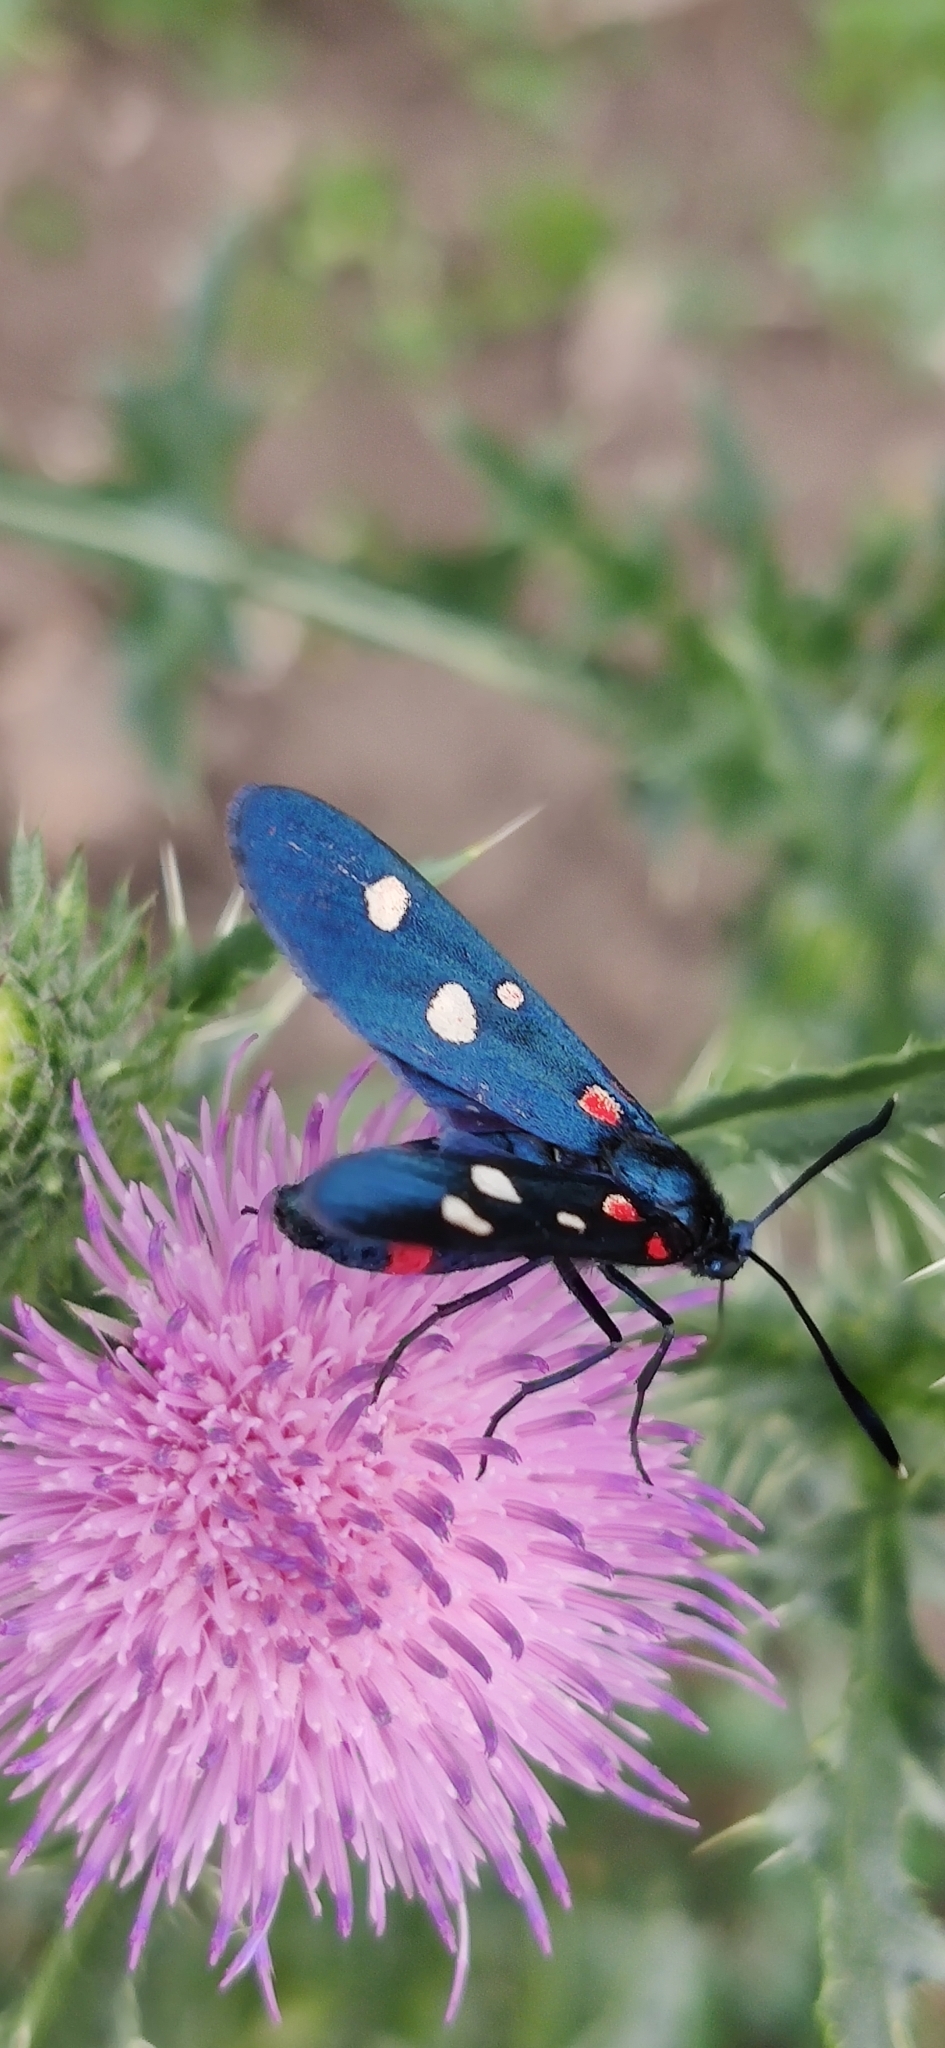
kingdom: Animalia
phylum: Arthropoda
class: Insecta
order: Lepidoptera
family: Zygaenidae
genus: Zygaena
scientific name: Zygaena ephialtes
